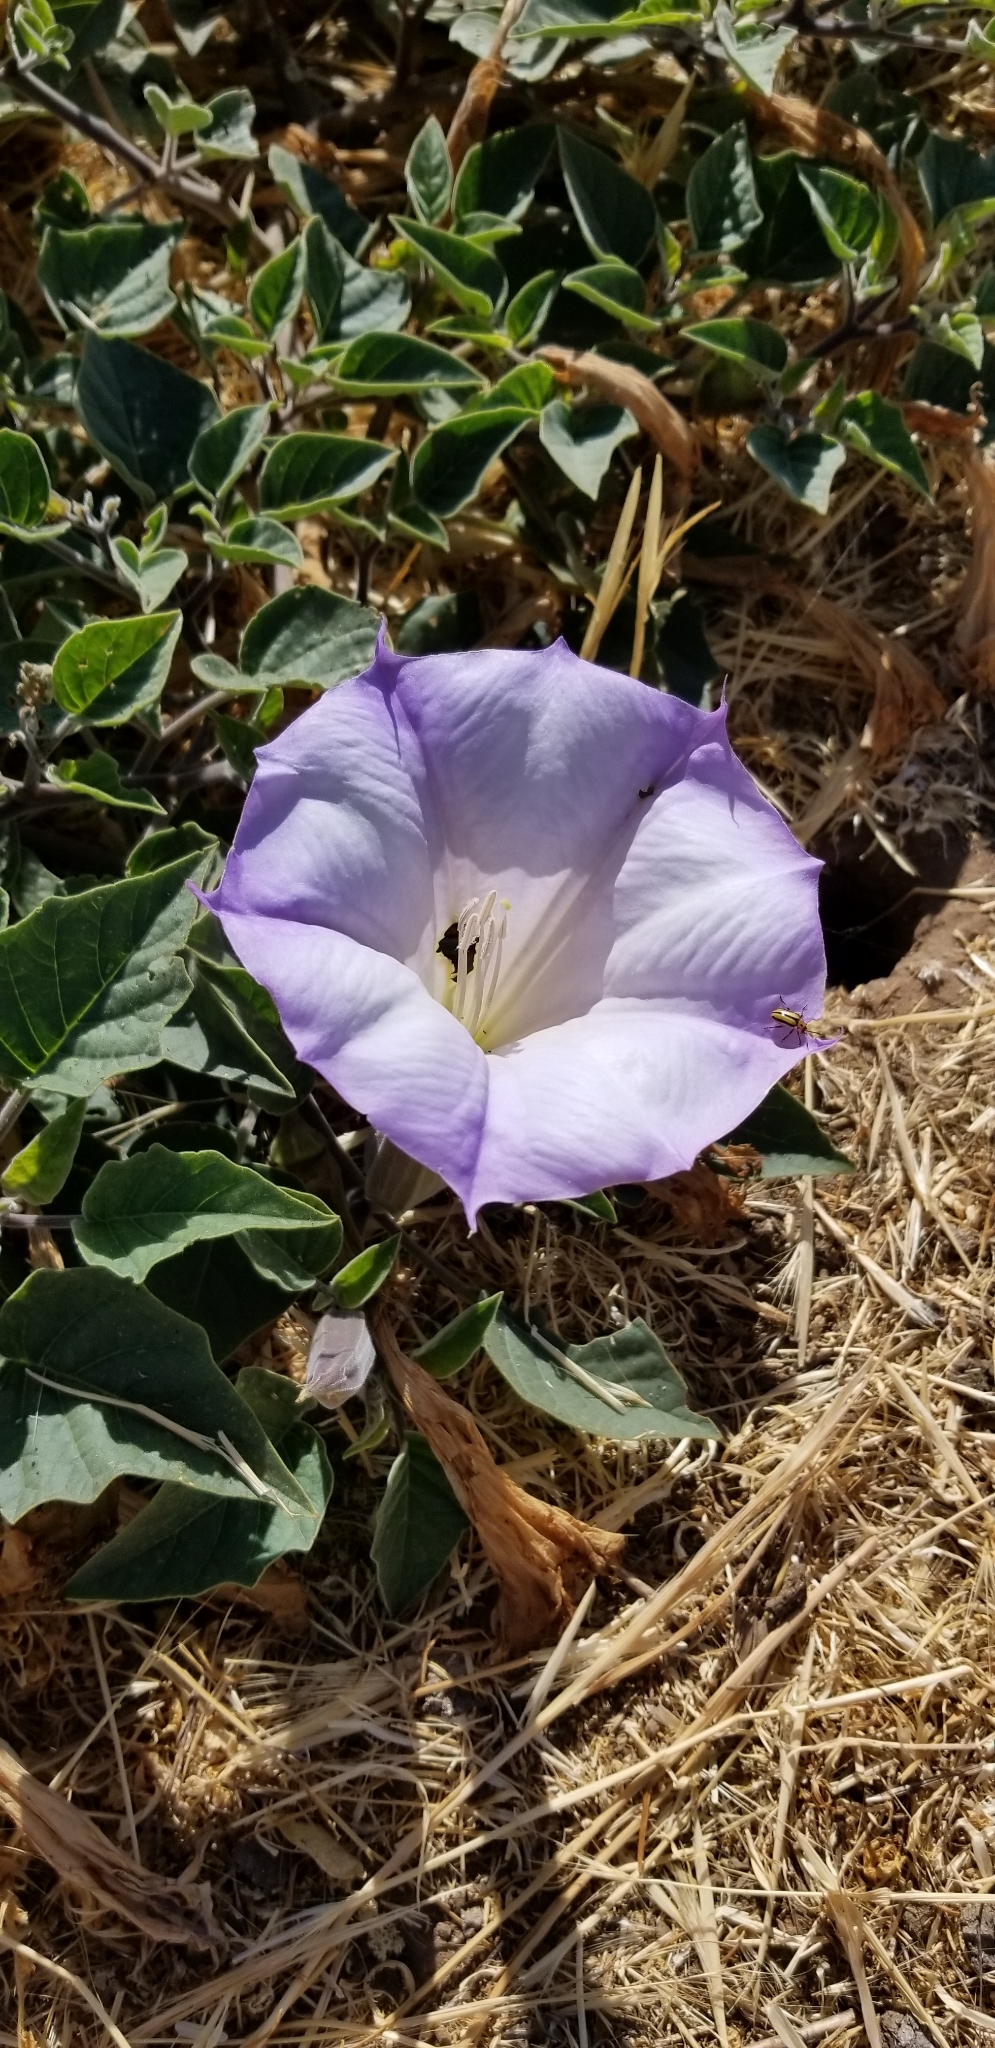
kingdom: Plantae
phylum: Tracheophyta
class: Magnoliopsida
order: Solanales
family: Solanaceae
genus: Datura
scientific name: Datura wrightii
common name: Sacred thorn-apple
